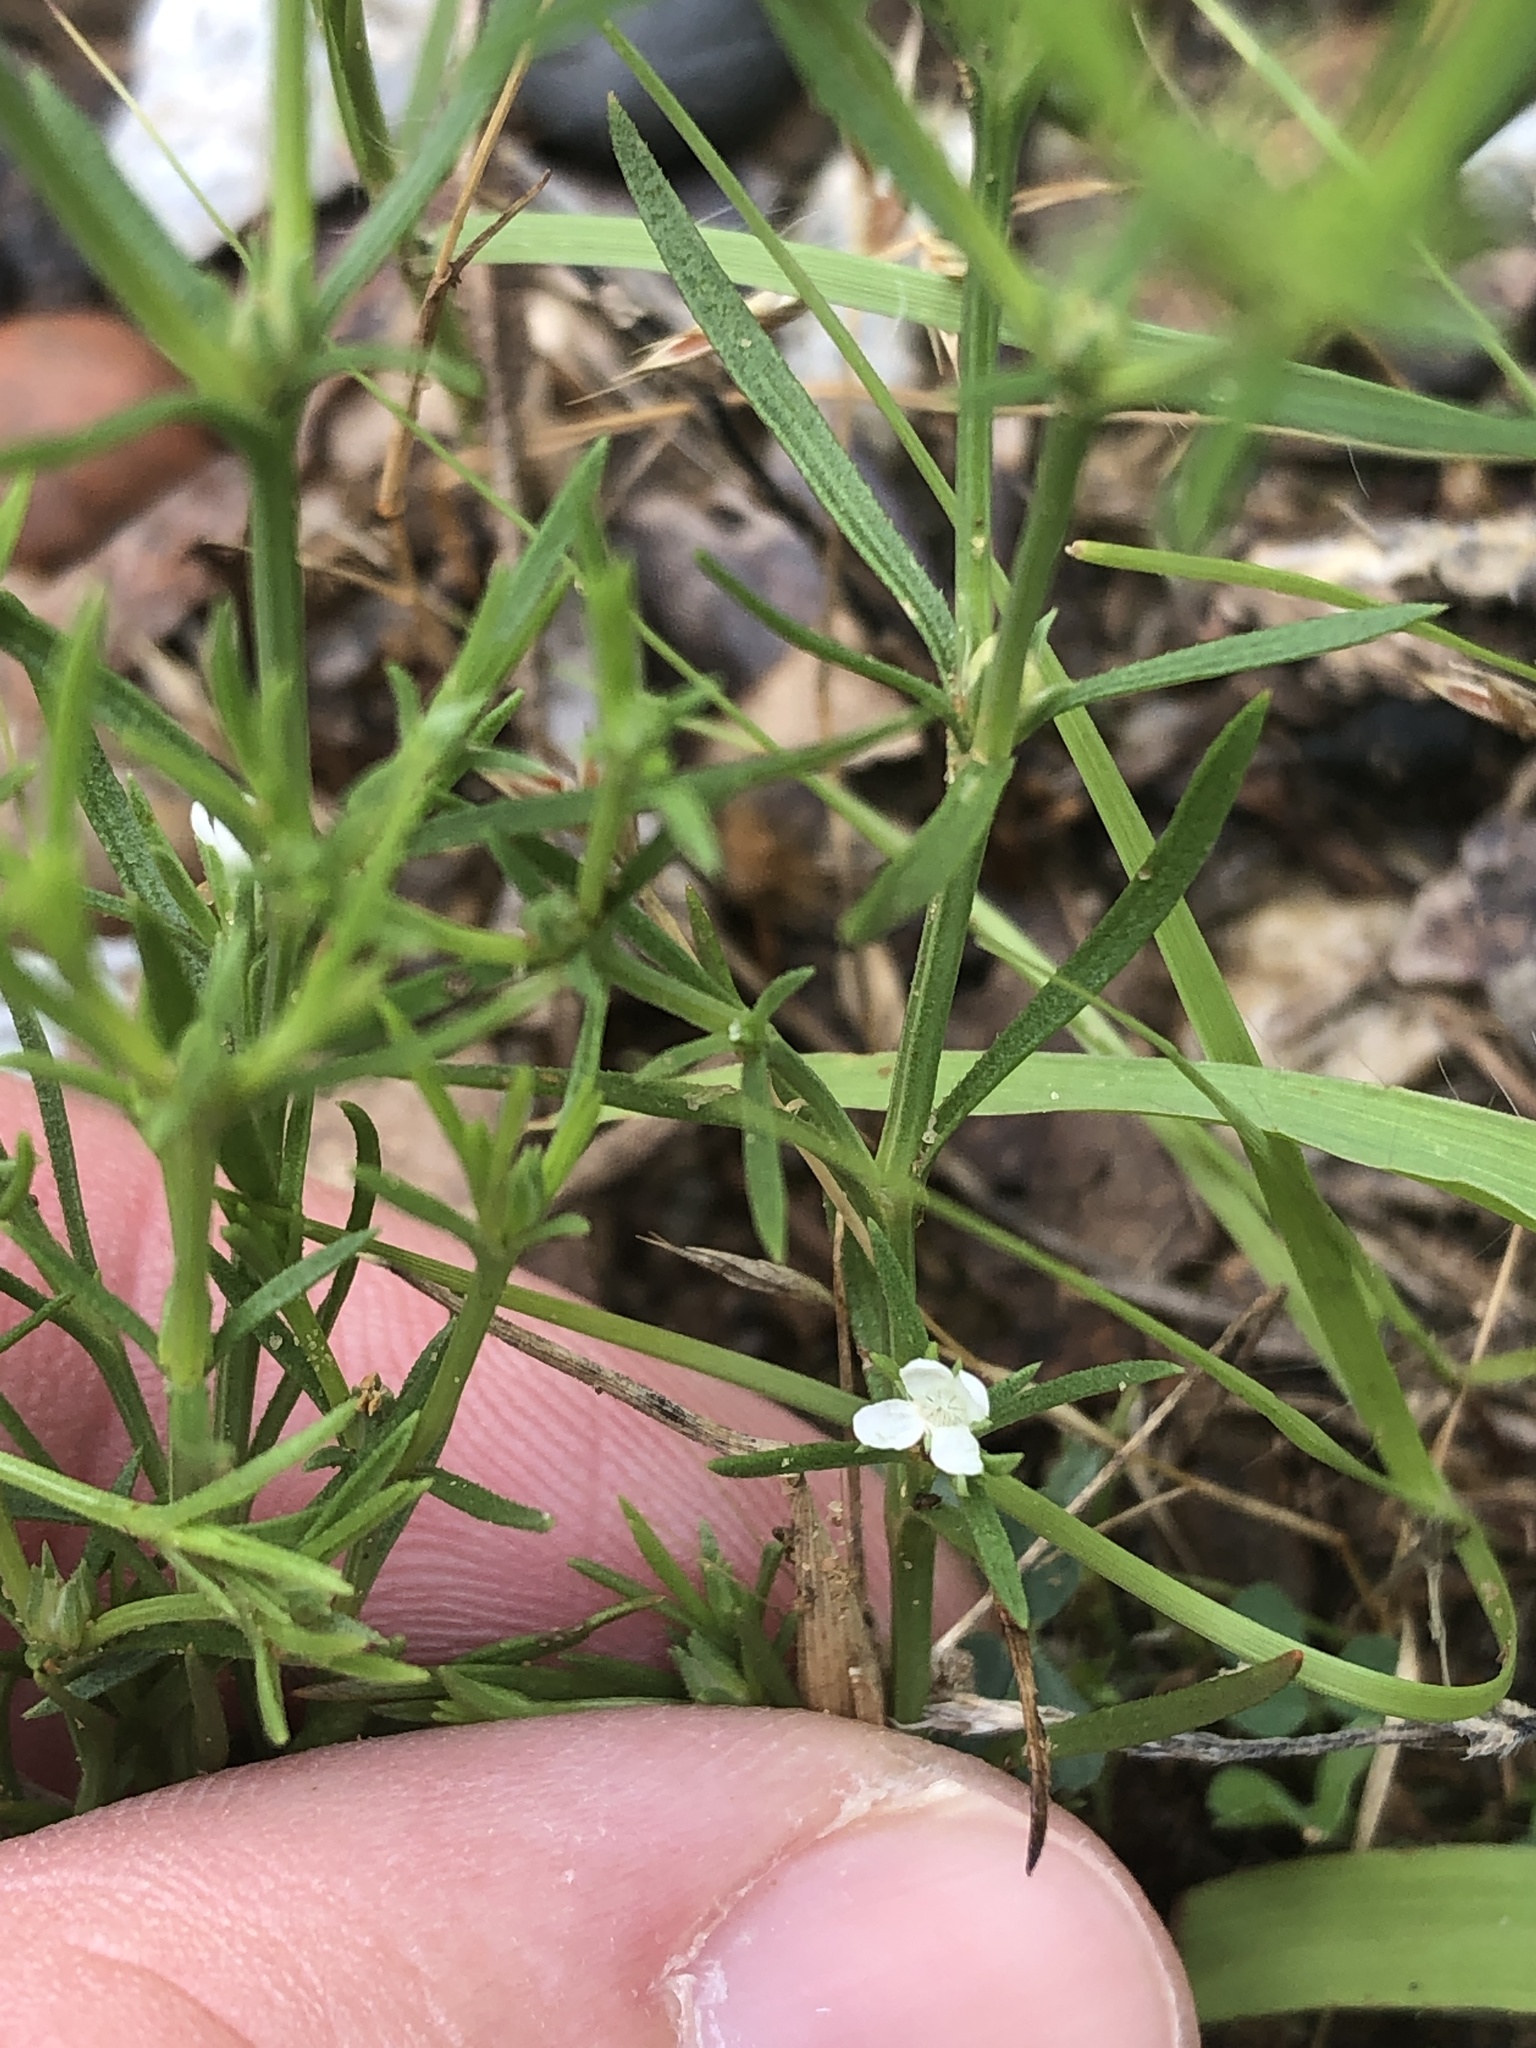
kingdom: Plantae
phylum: Tracheophyta
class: Magnoliopsida
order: Lamiales
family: Tetrachondraceae
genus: Polypremum
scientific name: Polypremum procumbens
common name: Juniper-leaf
